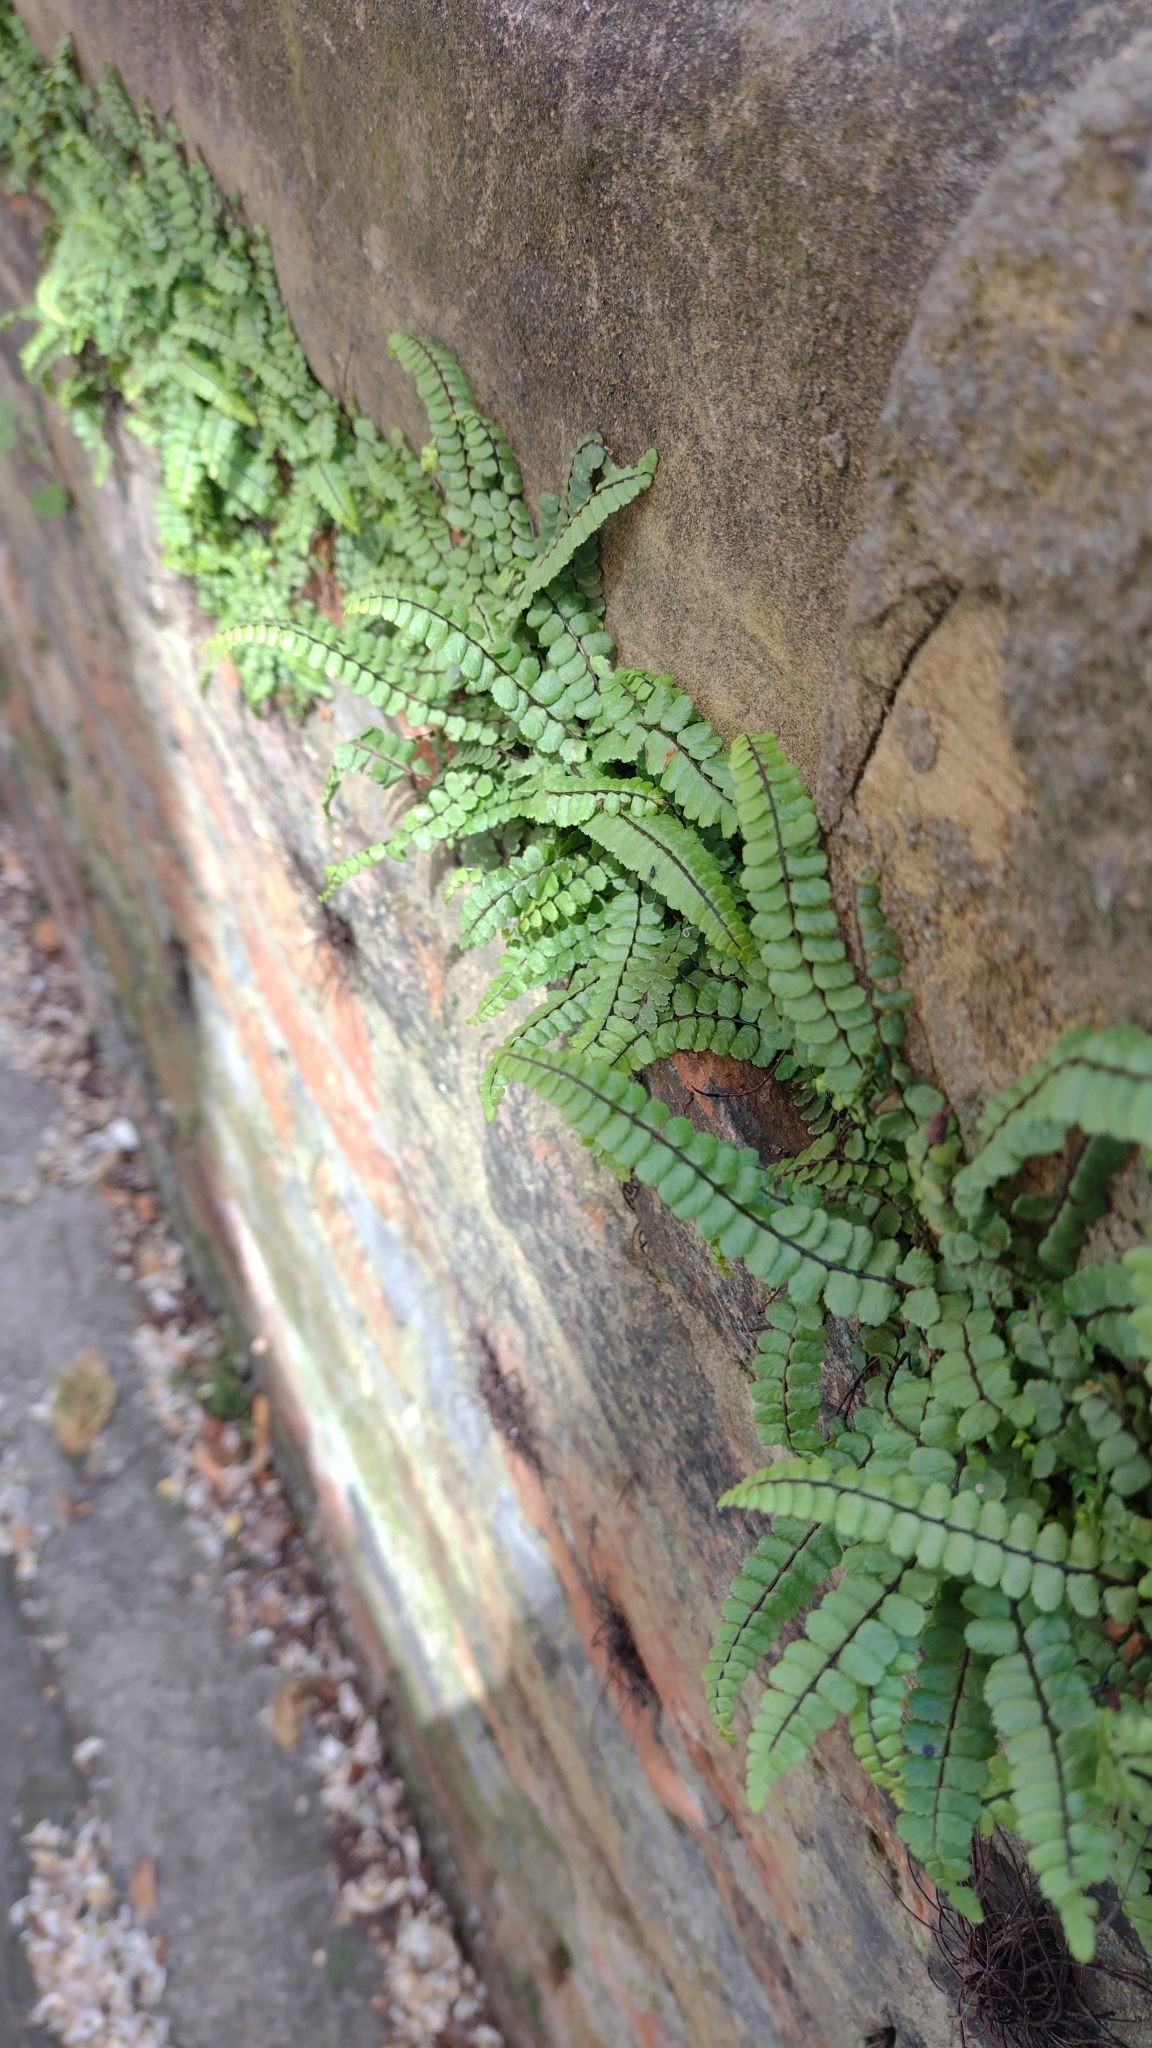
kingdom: Plantae
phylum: Tracheophyta
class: Polypodiopsida
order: Polypodiales
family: Aspleniaceae
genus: Asplenium
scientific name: Asplenium trichomanes
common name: Maidenhair spleenwort
